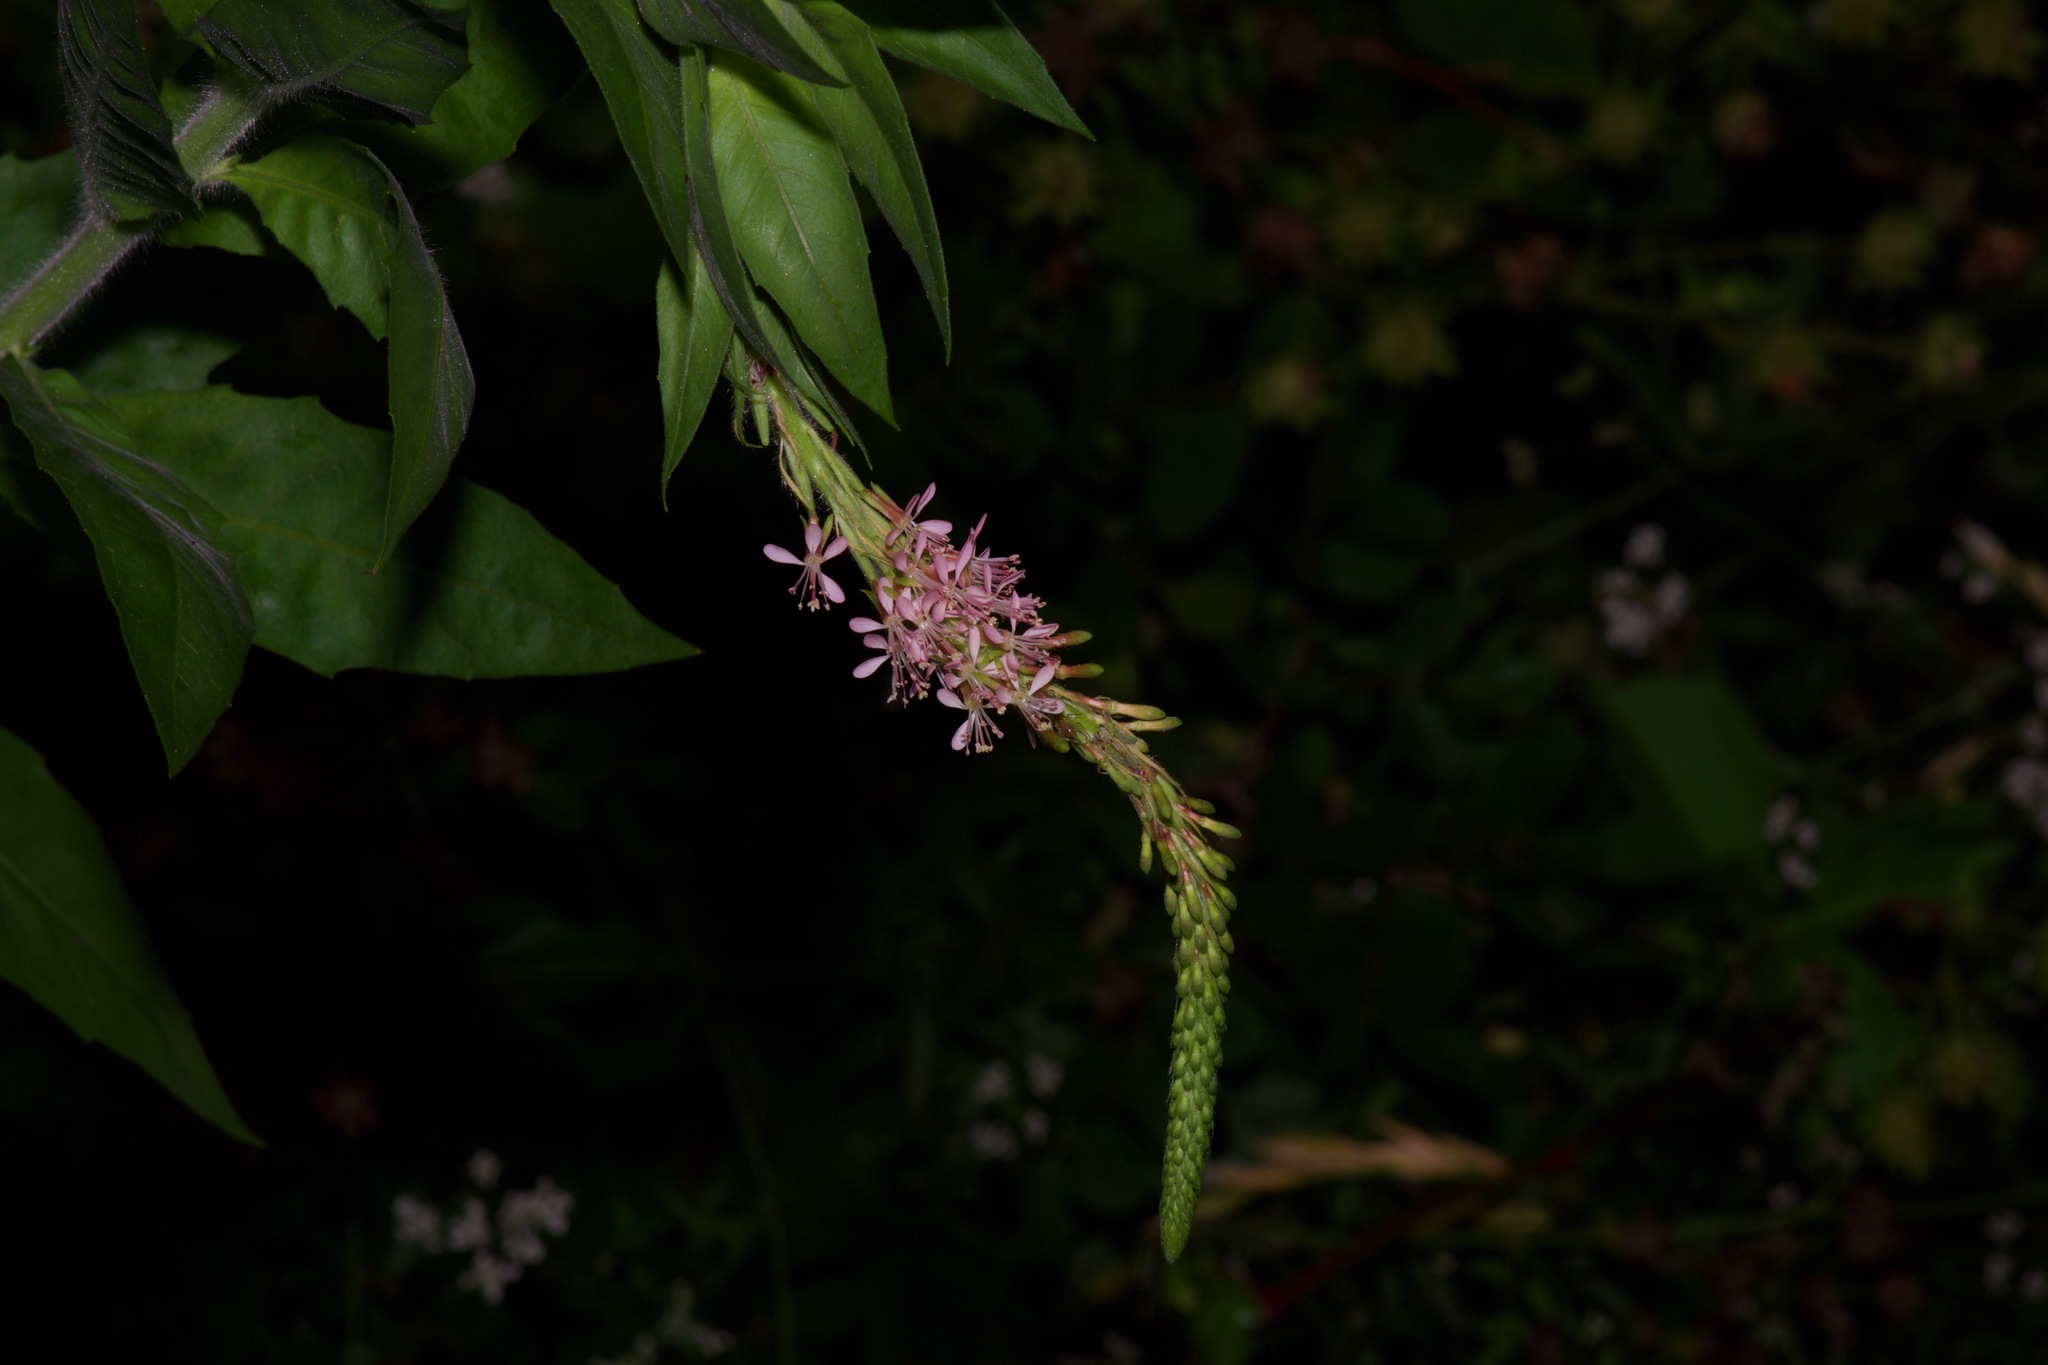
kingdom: Plantae
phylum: Tracheophyta
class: Magnoliopsida
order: Myrtales
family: Onagraceae
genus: Oenothera
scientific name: Oenothera curtiflora
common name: Velvetweed
